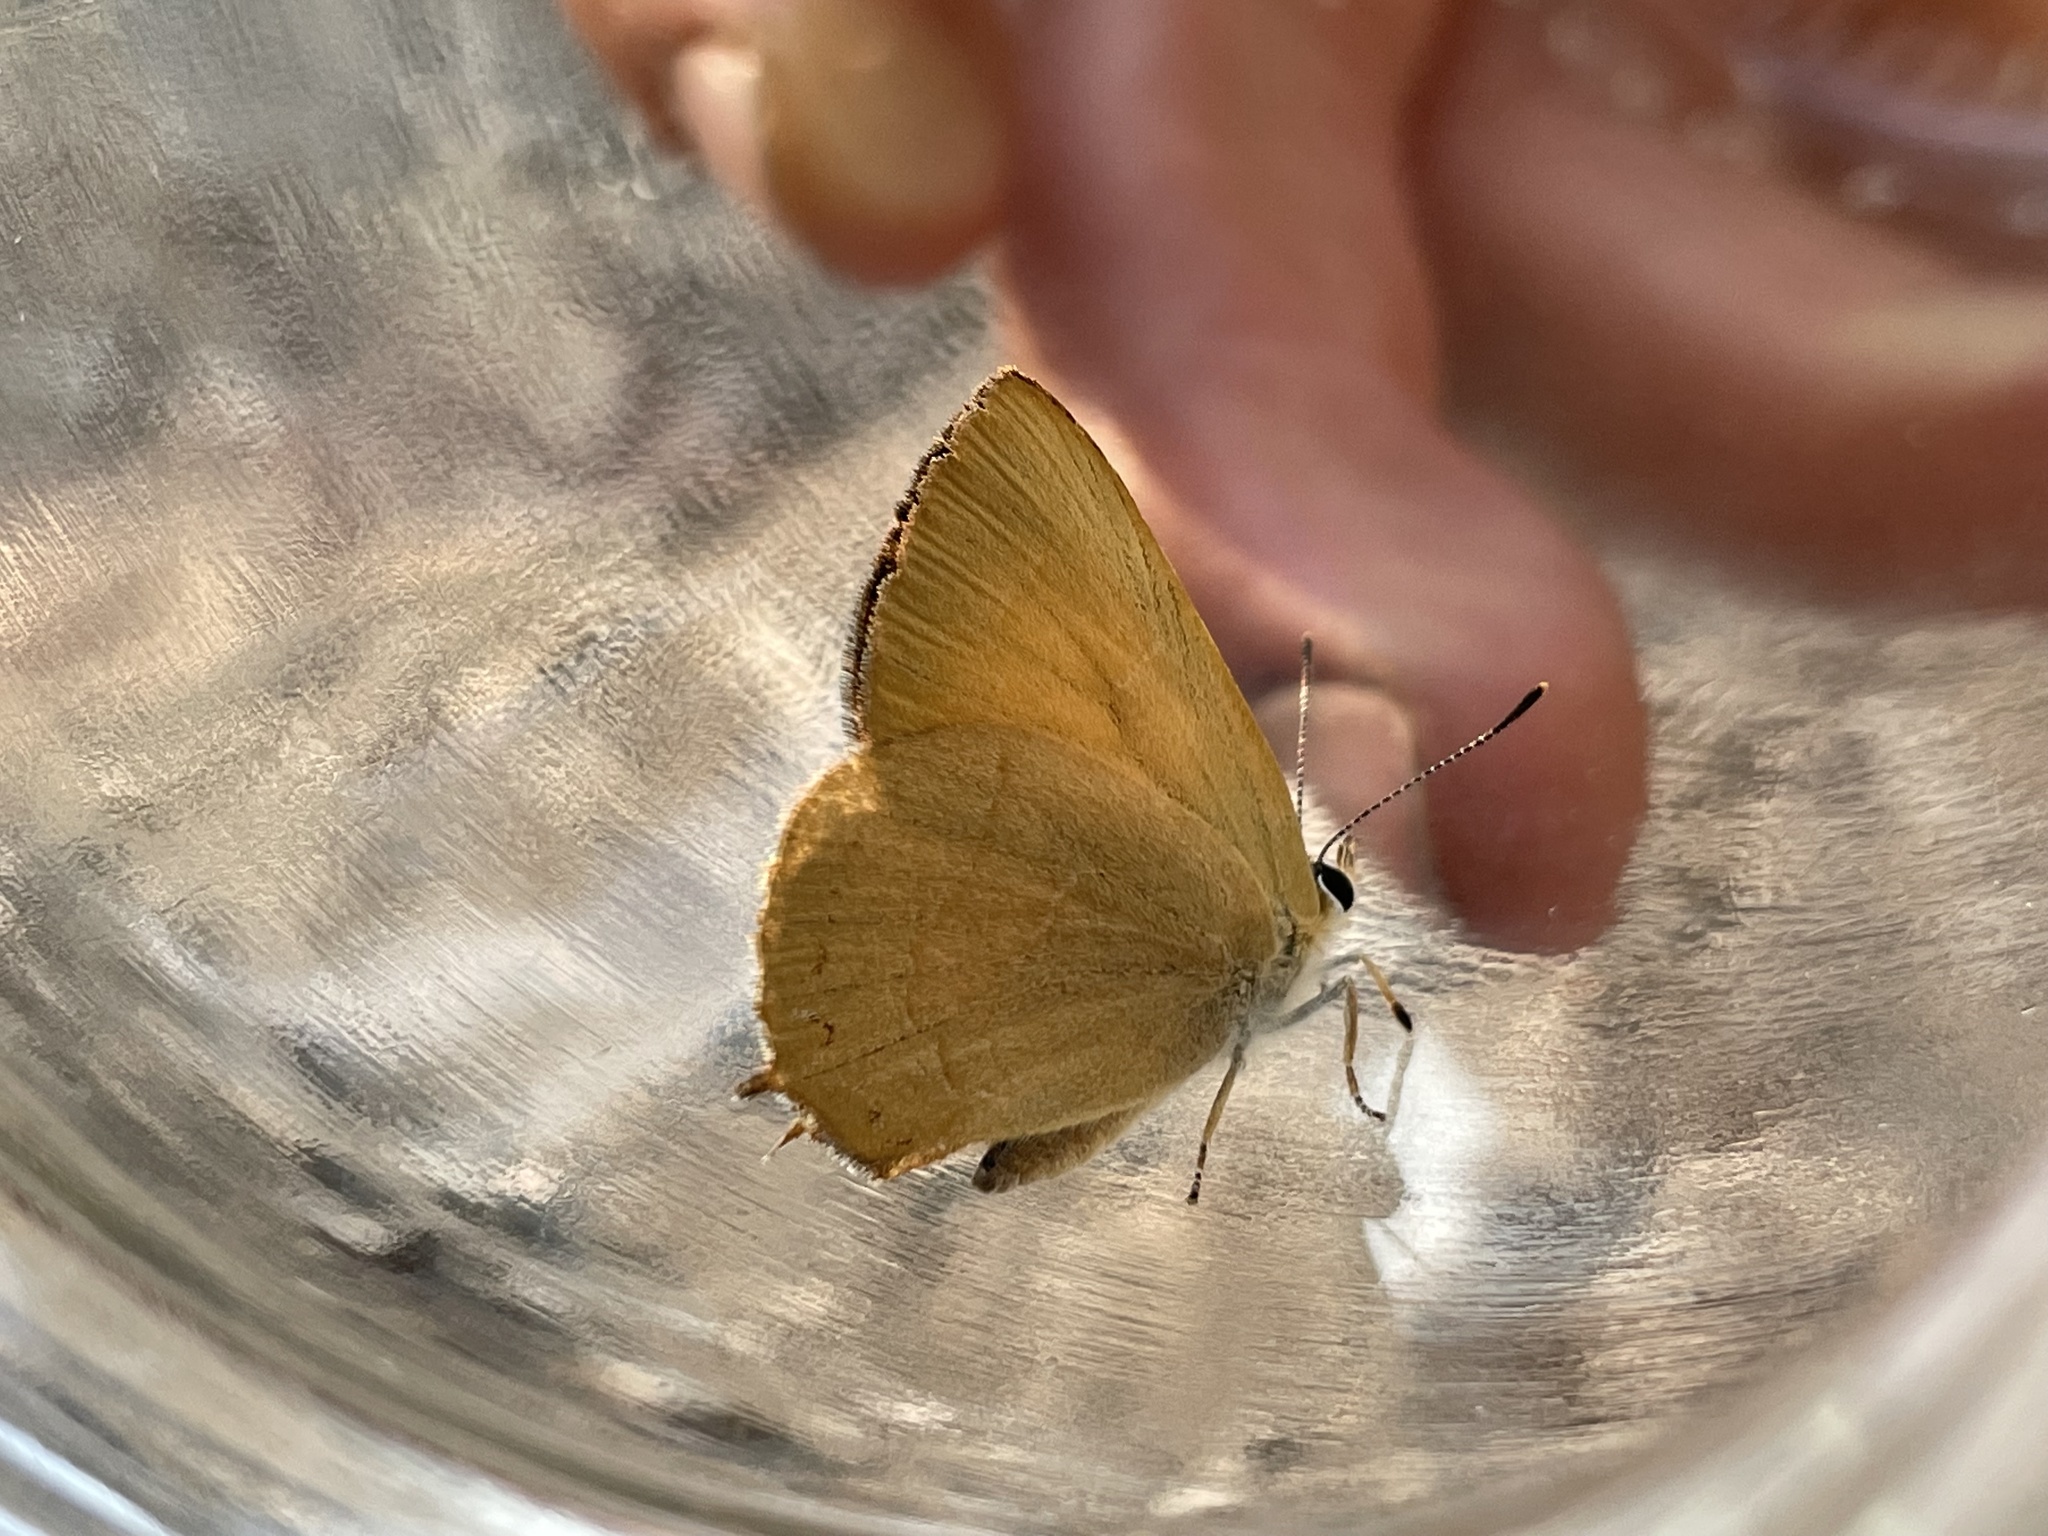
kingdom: Animalia
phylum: Arthropoda
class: Insecta
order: Lepidoptera
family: Lycaenidae
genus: Habrodais
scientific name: Habrodais grunus
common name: Golden hairstreak
